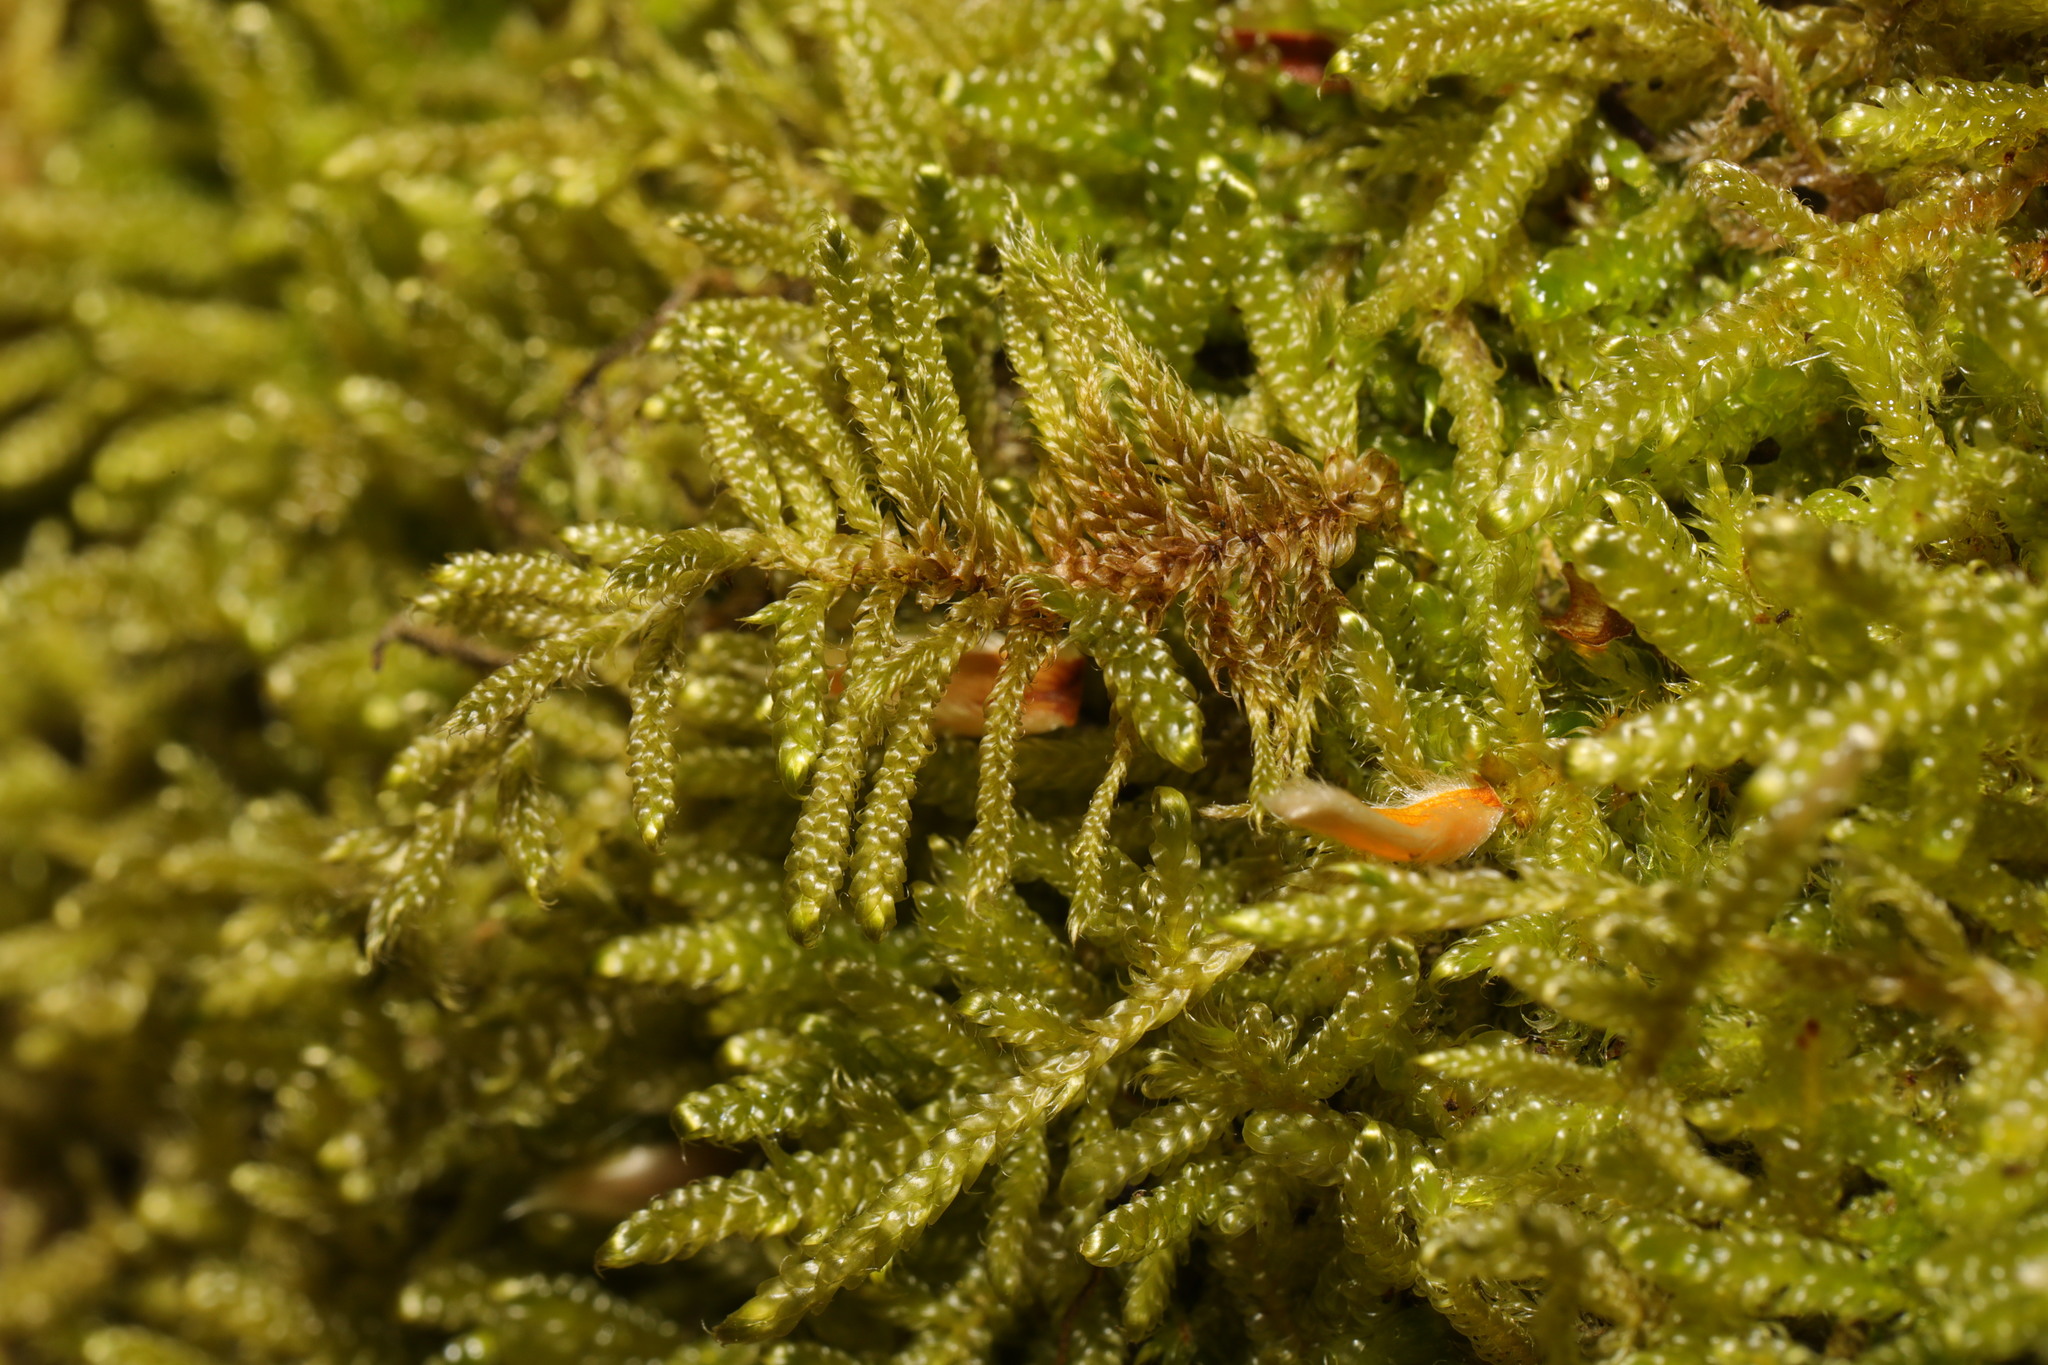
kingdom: Plantae
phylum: Bryophyta
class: Bryopsida
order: Hypnales
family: Hypnaceae
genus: Hypnum
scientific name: Hypnum cupressiforme
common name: Cypress-leaved plait-moss
